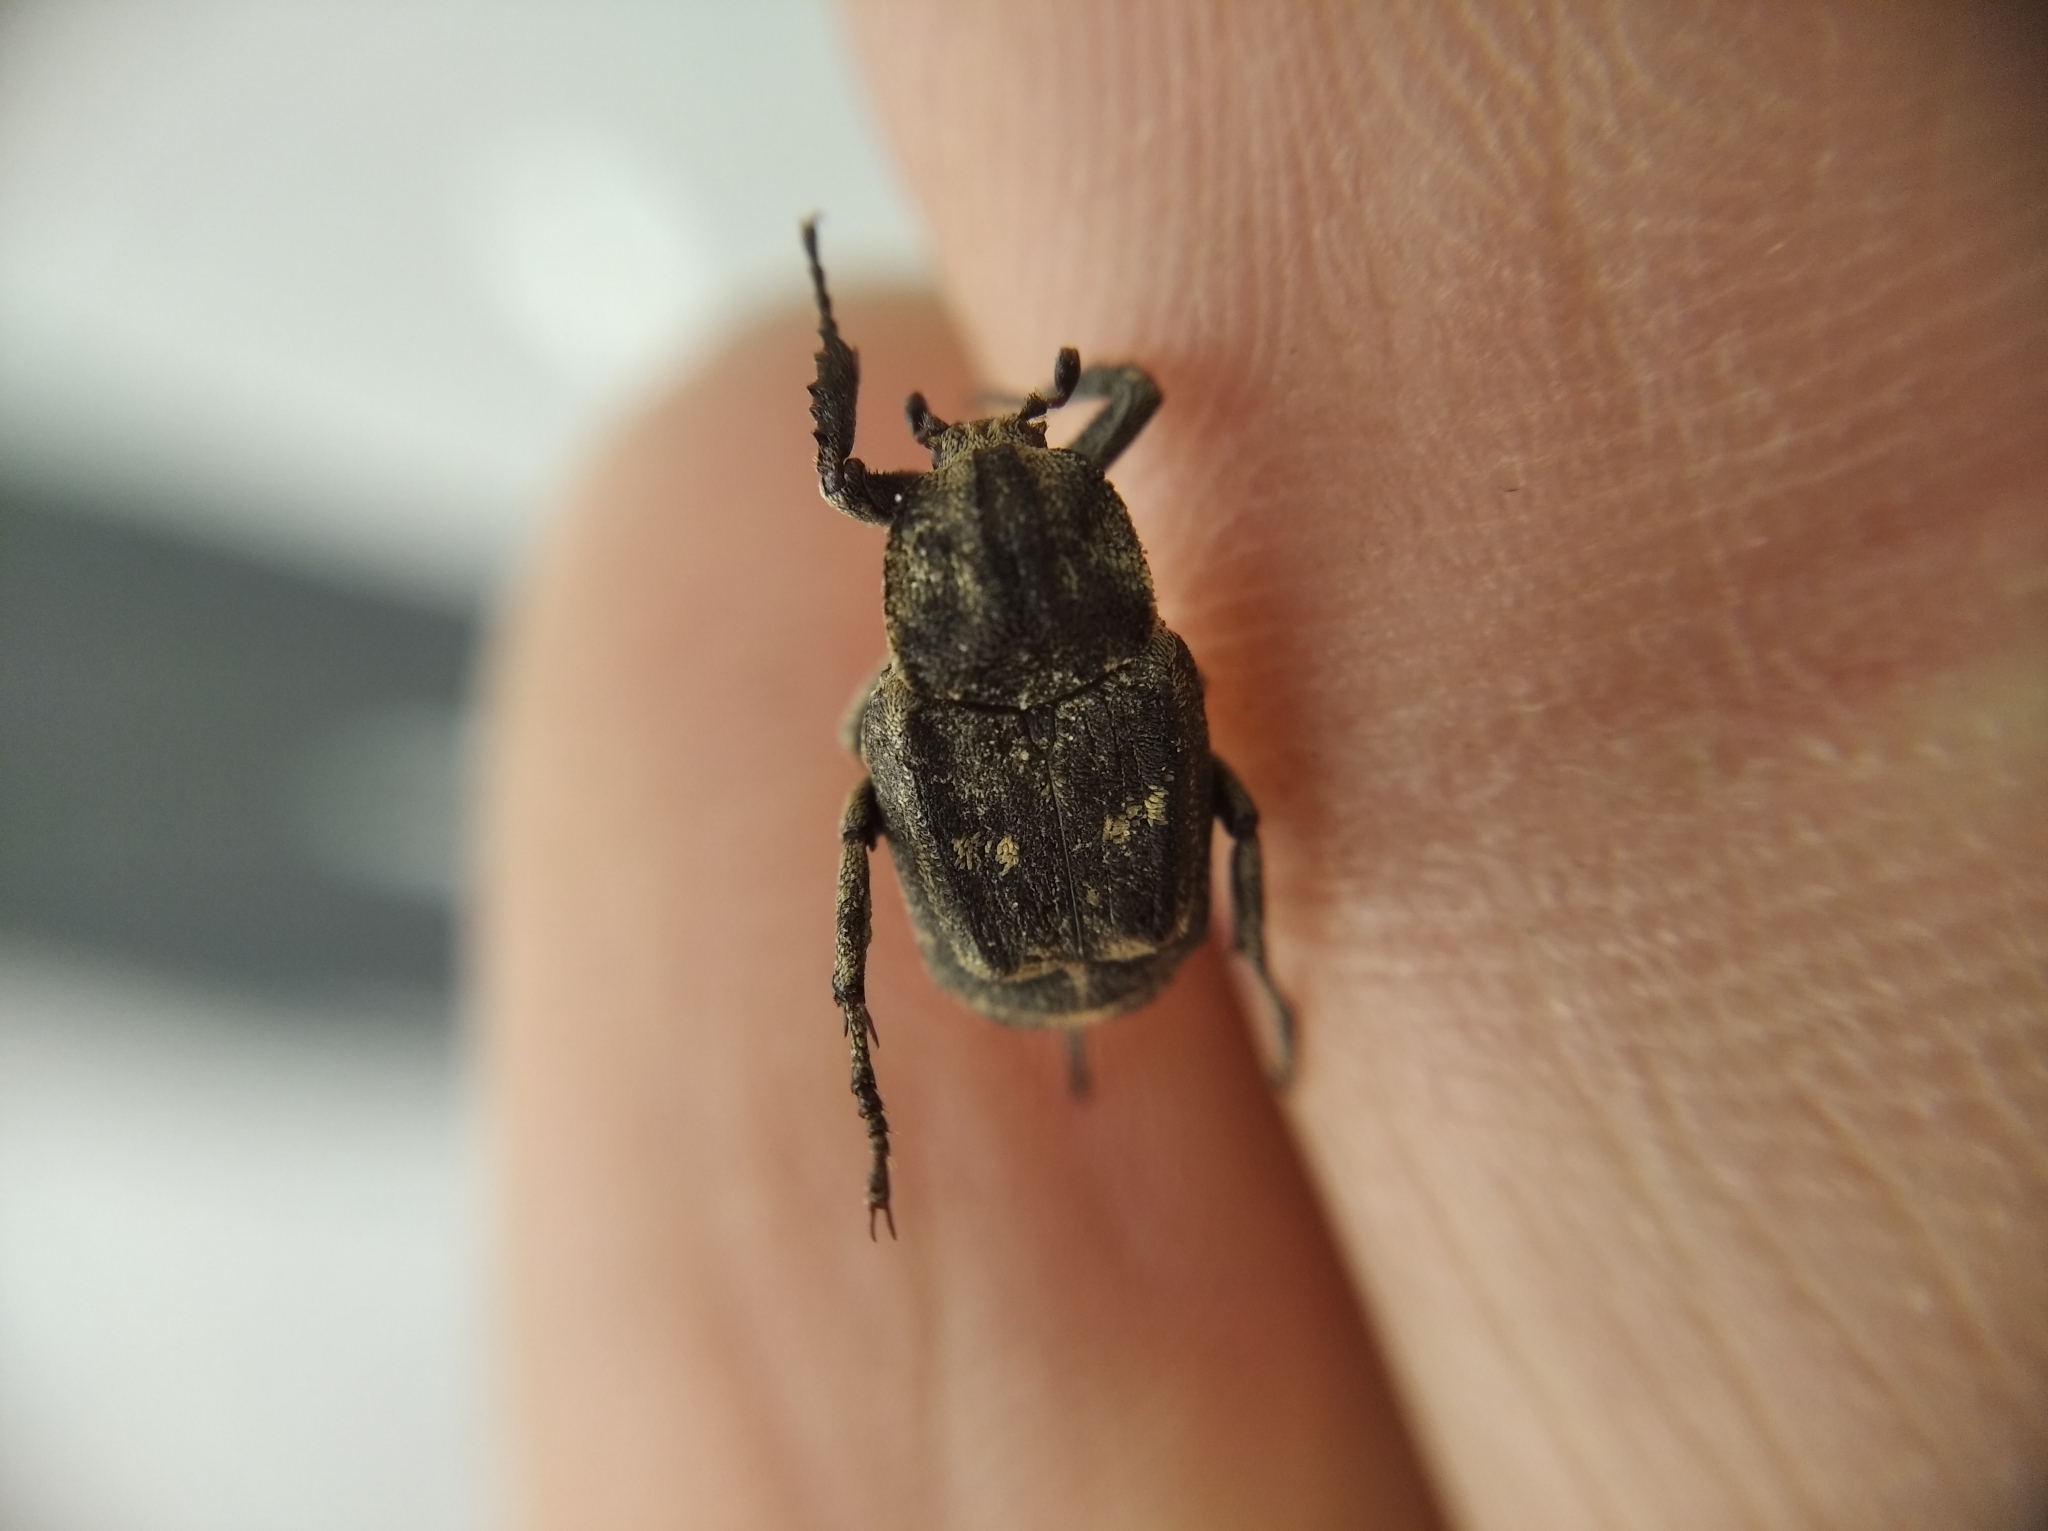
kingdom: Animalia
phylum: Arthropoda
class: Insecta
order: Coleoptera
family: Scarabaeidae
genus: Valgus
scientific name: Valgus hemipterus
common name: Bug flower chafer
